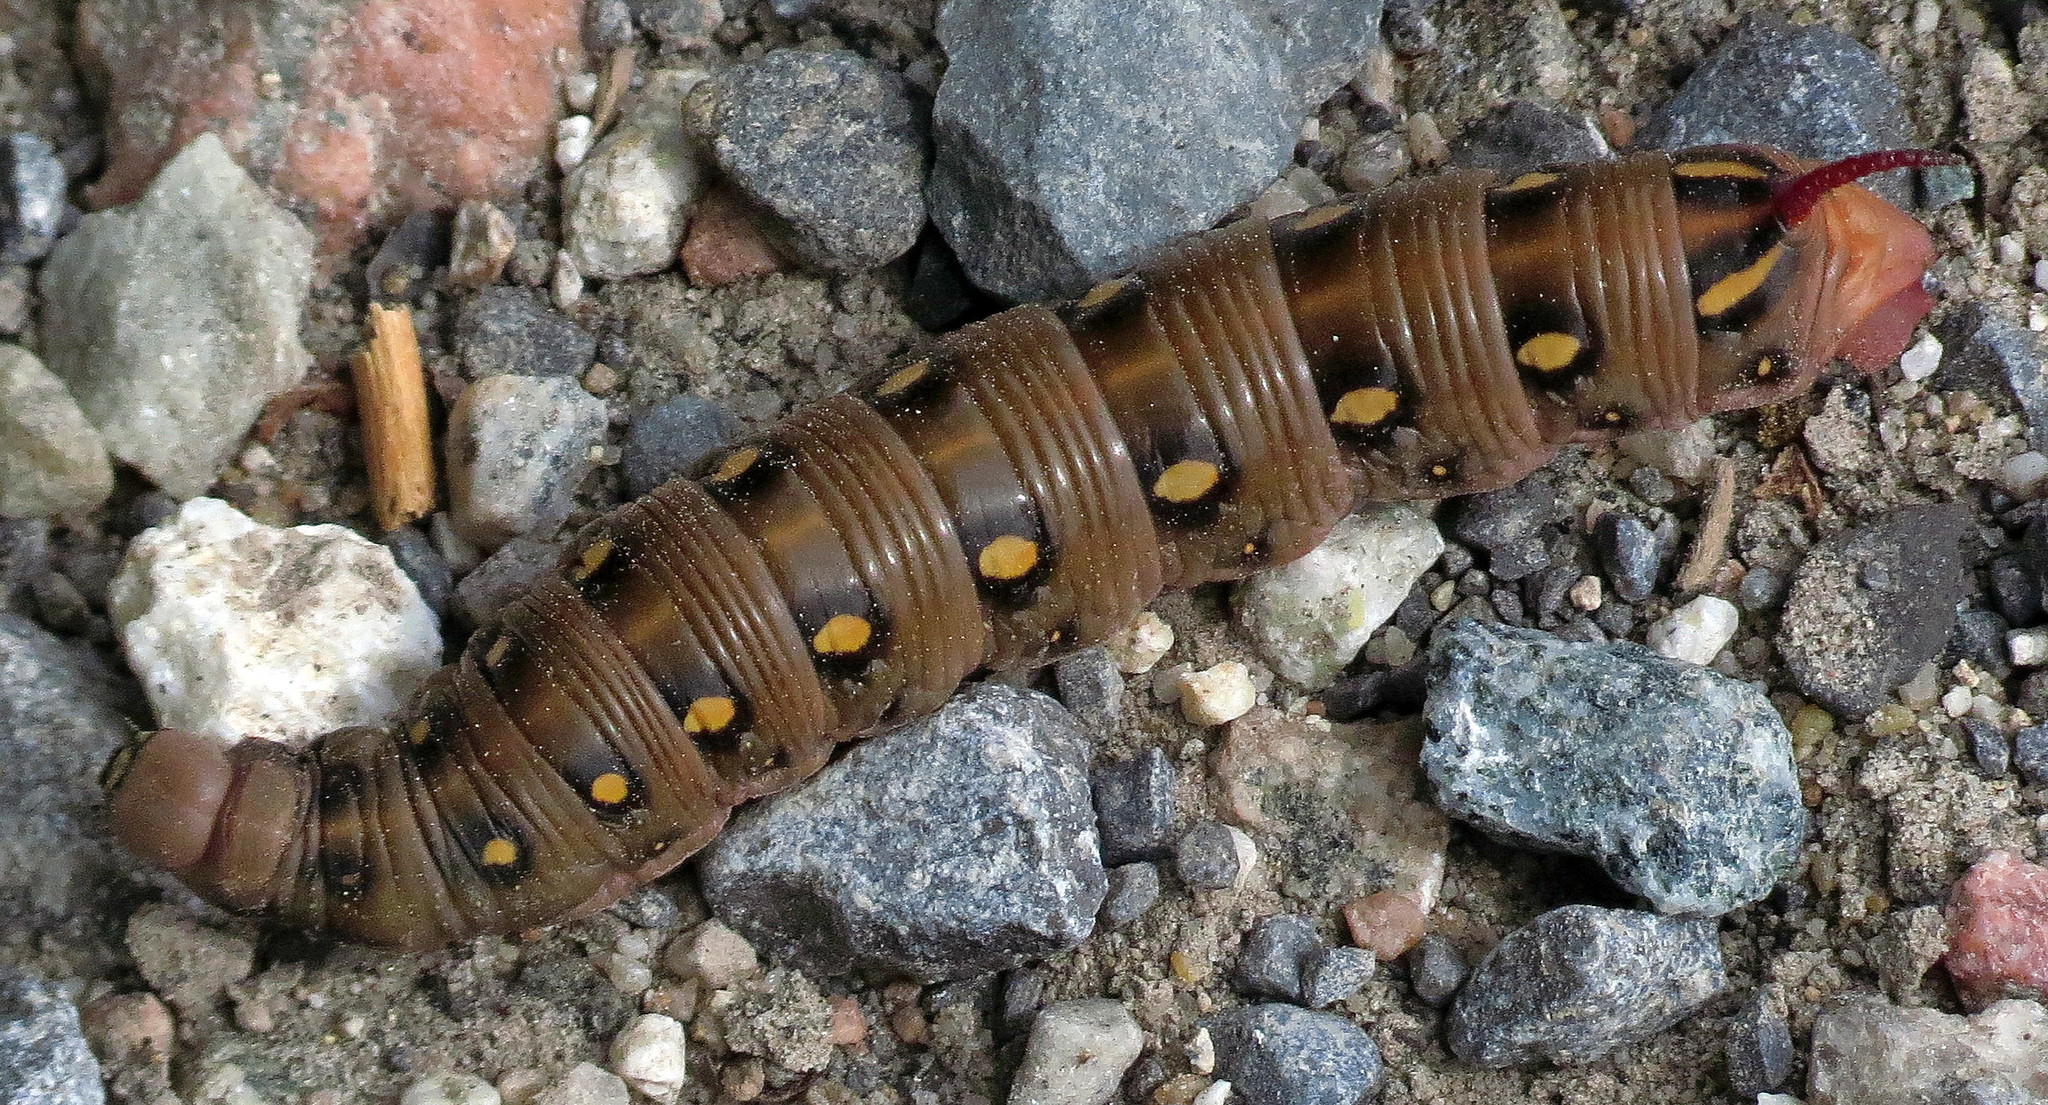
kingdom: Animalia
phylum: Arthropoda
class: Insecta
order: Lepidoptera
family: Sphingidae
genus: Hyles
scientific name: Hyles gallii
